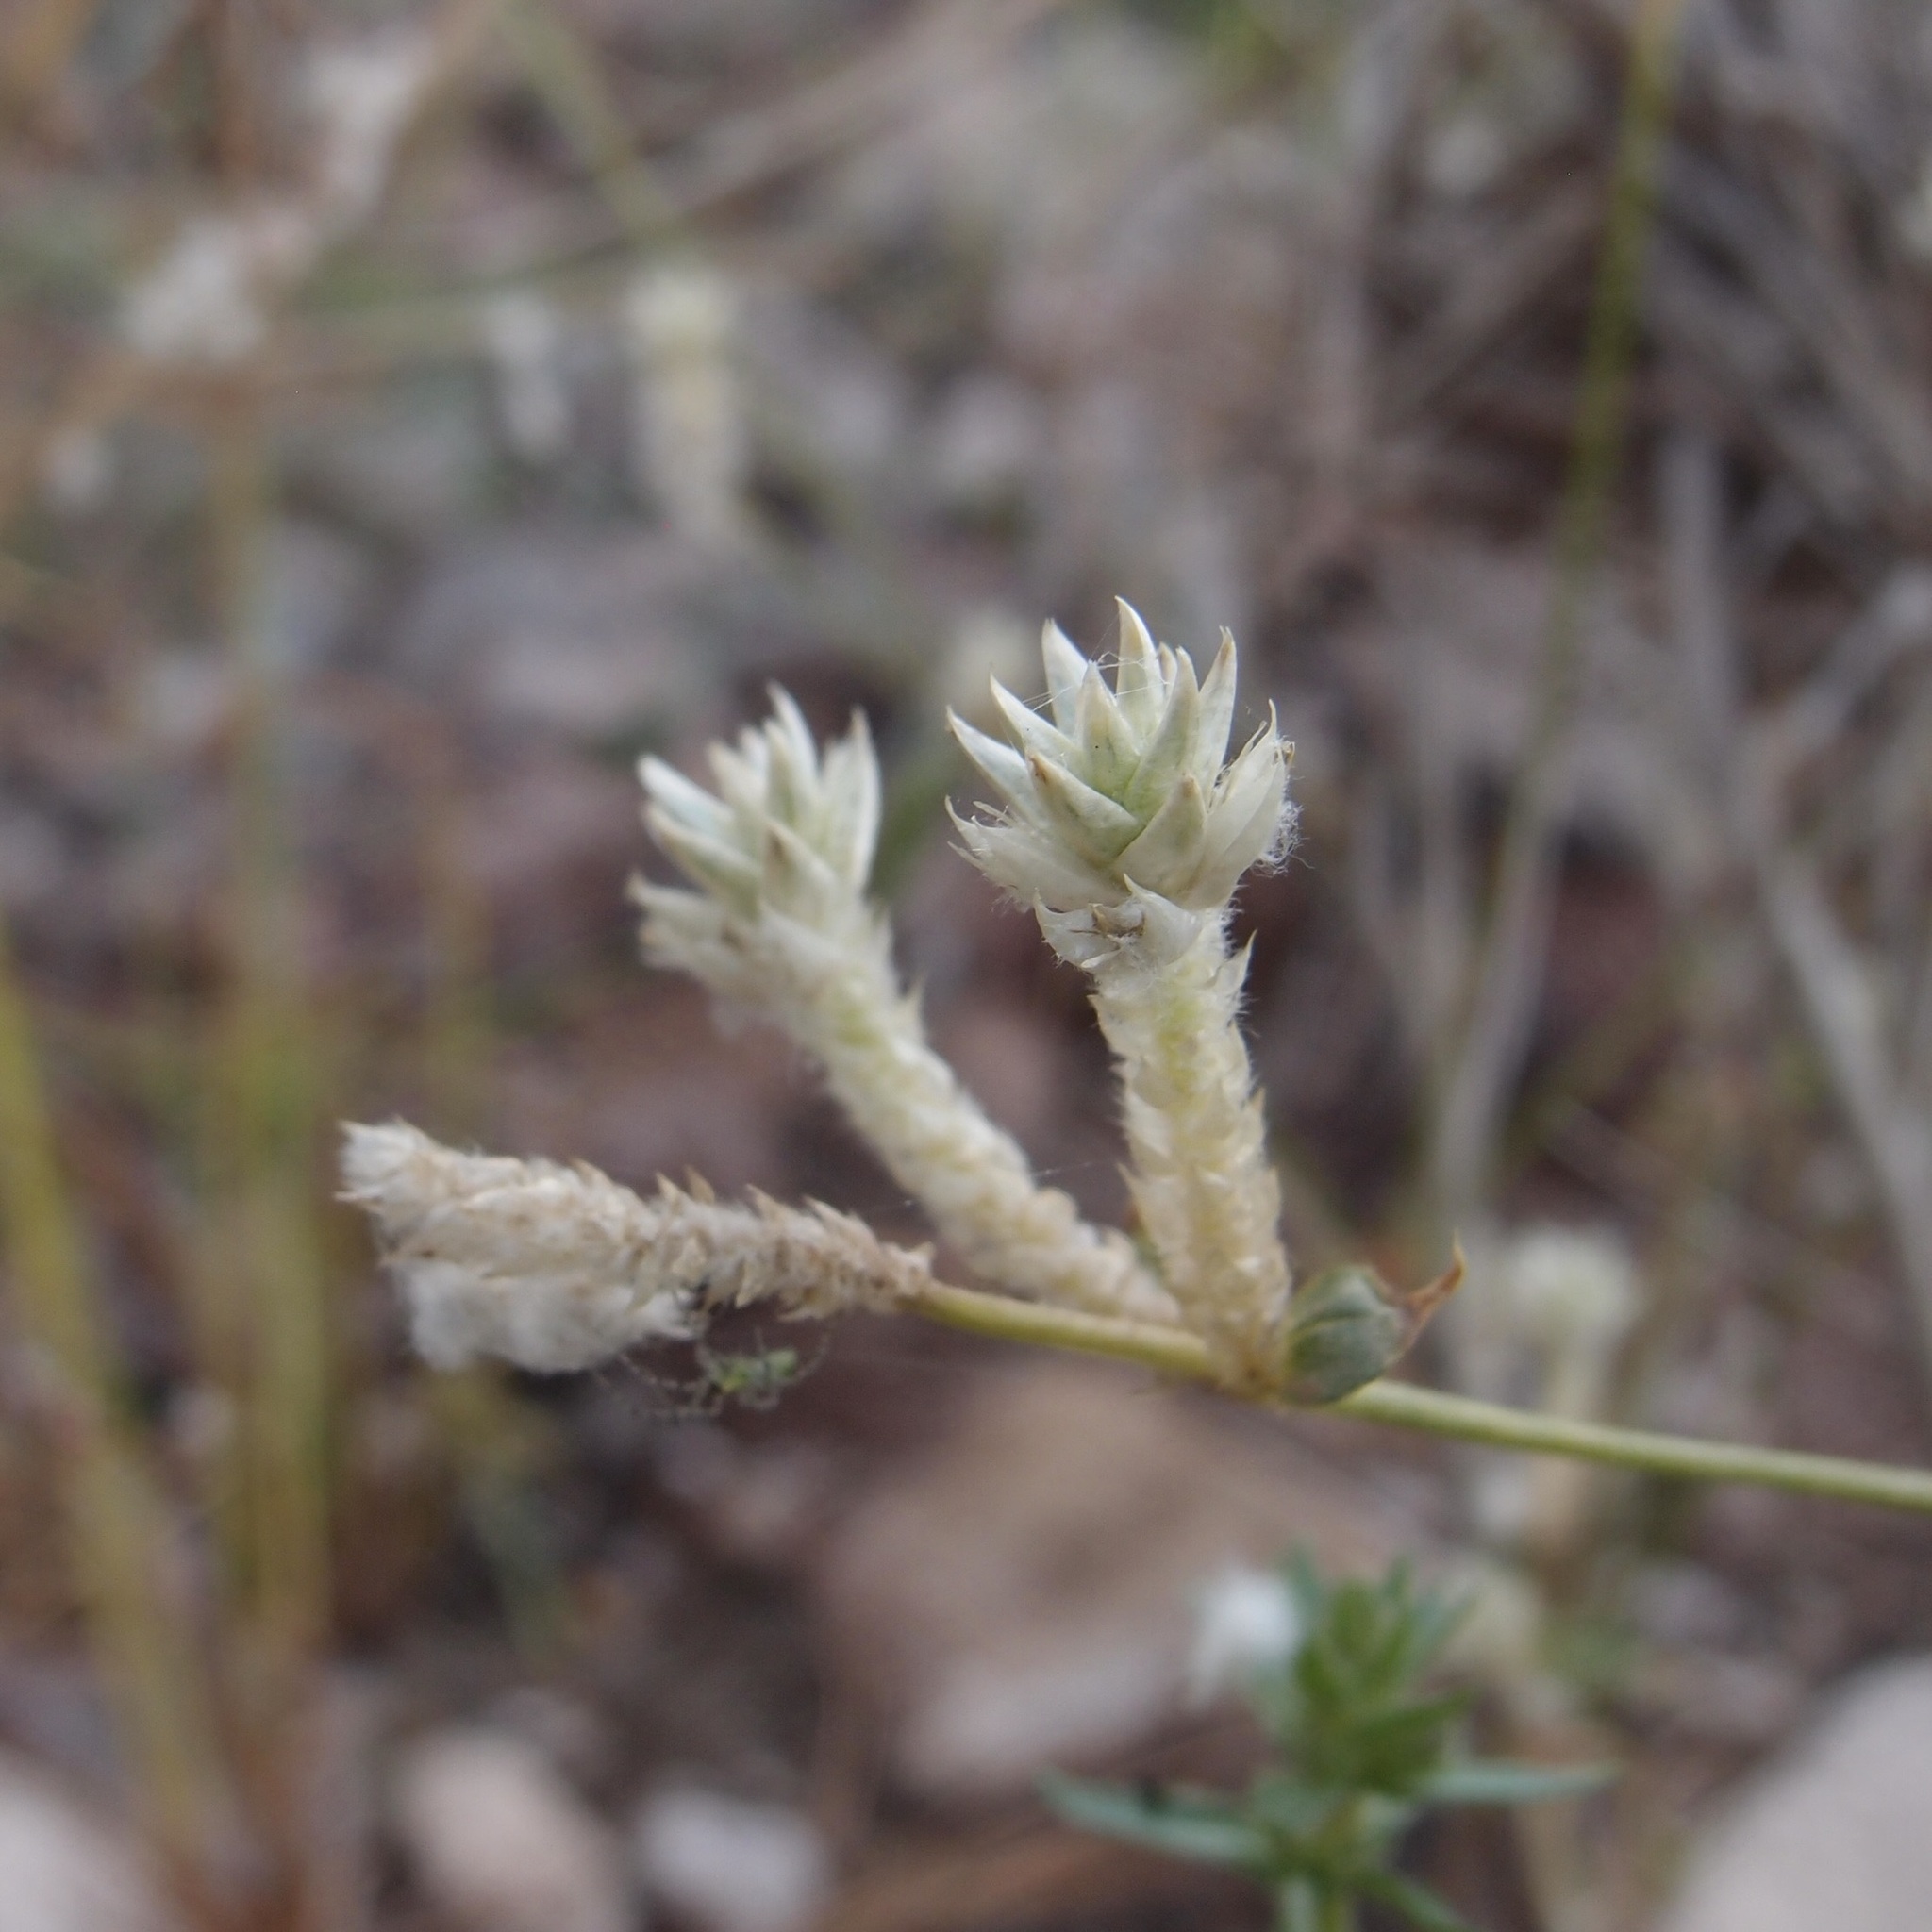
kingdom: Plantae
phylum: Tracheophyta
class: Magnoliopsida
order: Caryophyllales
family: Amaranthaceae
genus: Gomphrena
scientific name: Gomphrena sonorae
